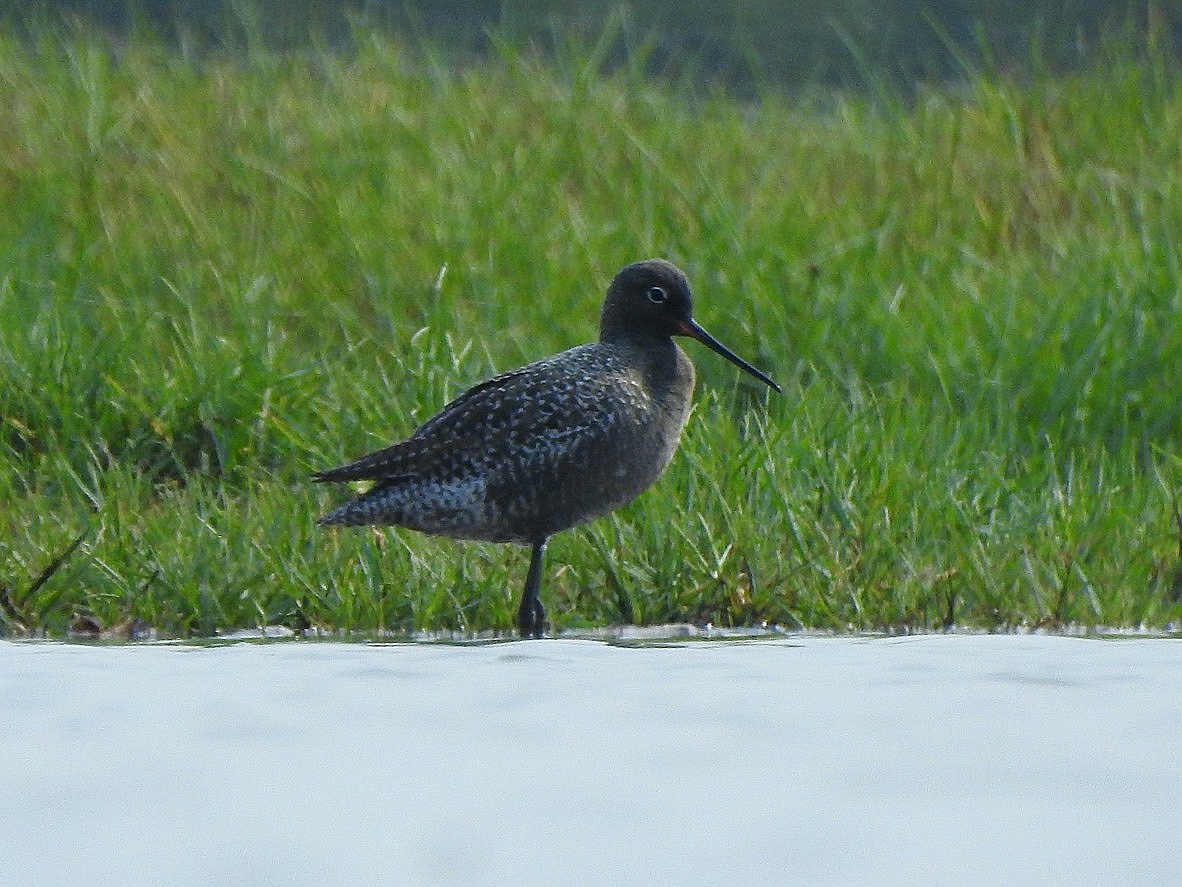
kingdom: Animalia
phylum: Chordata
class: Aves
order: Charadriiformes
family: Scolopacidae
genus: Tringa
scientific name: Tringa erythropus
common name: Spotted redshank
